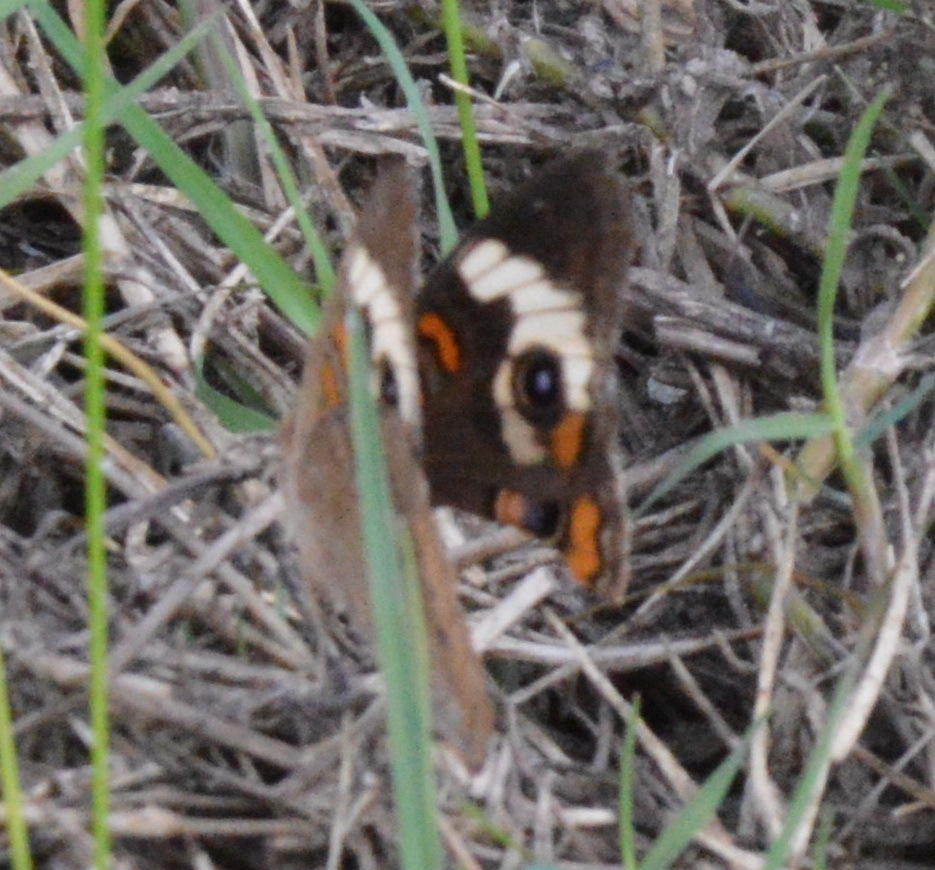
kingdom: Animalia
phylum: Arthropoda
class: Insecta
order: Lepidoptera
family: Nymphalidae
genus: Junonia
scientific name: Junonia coenia
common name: Common buckeye
